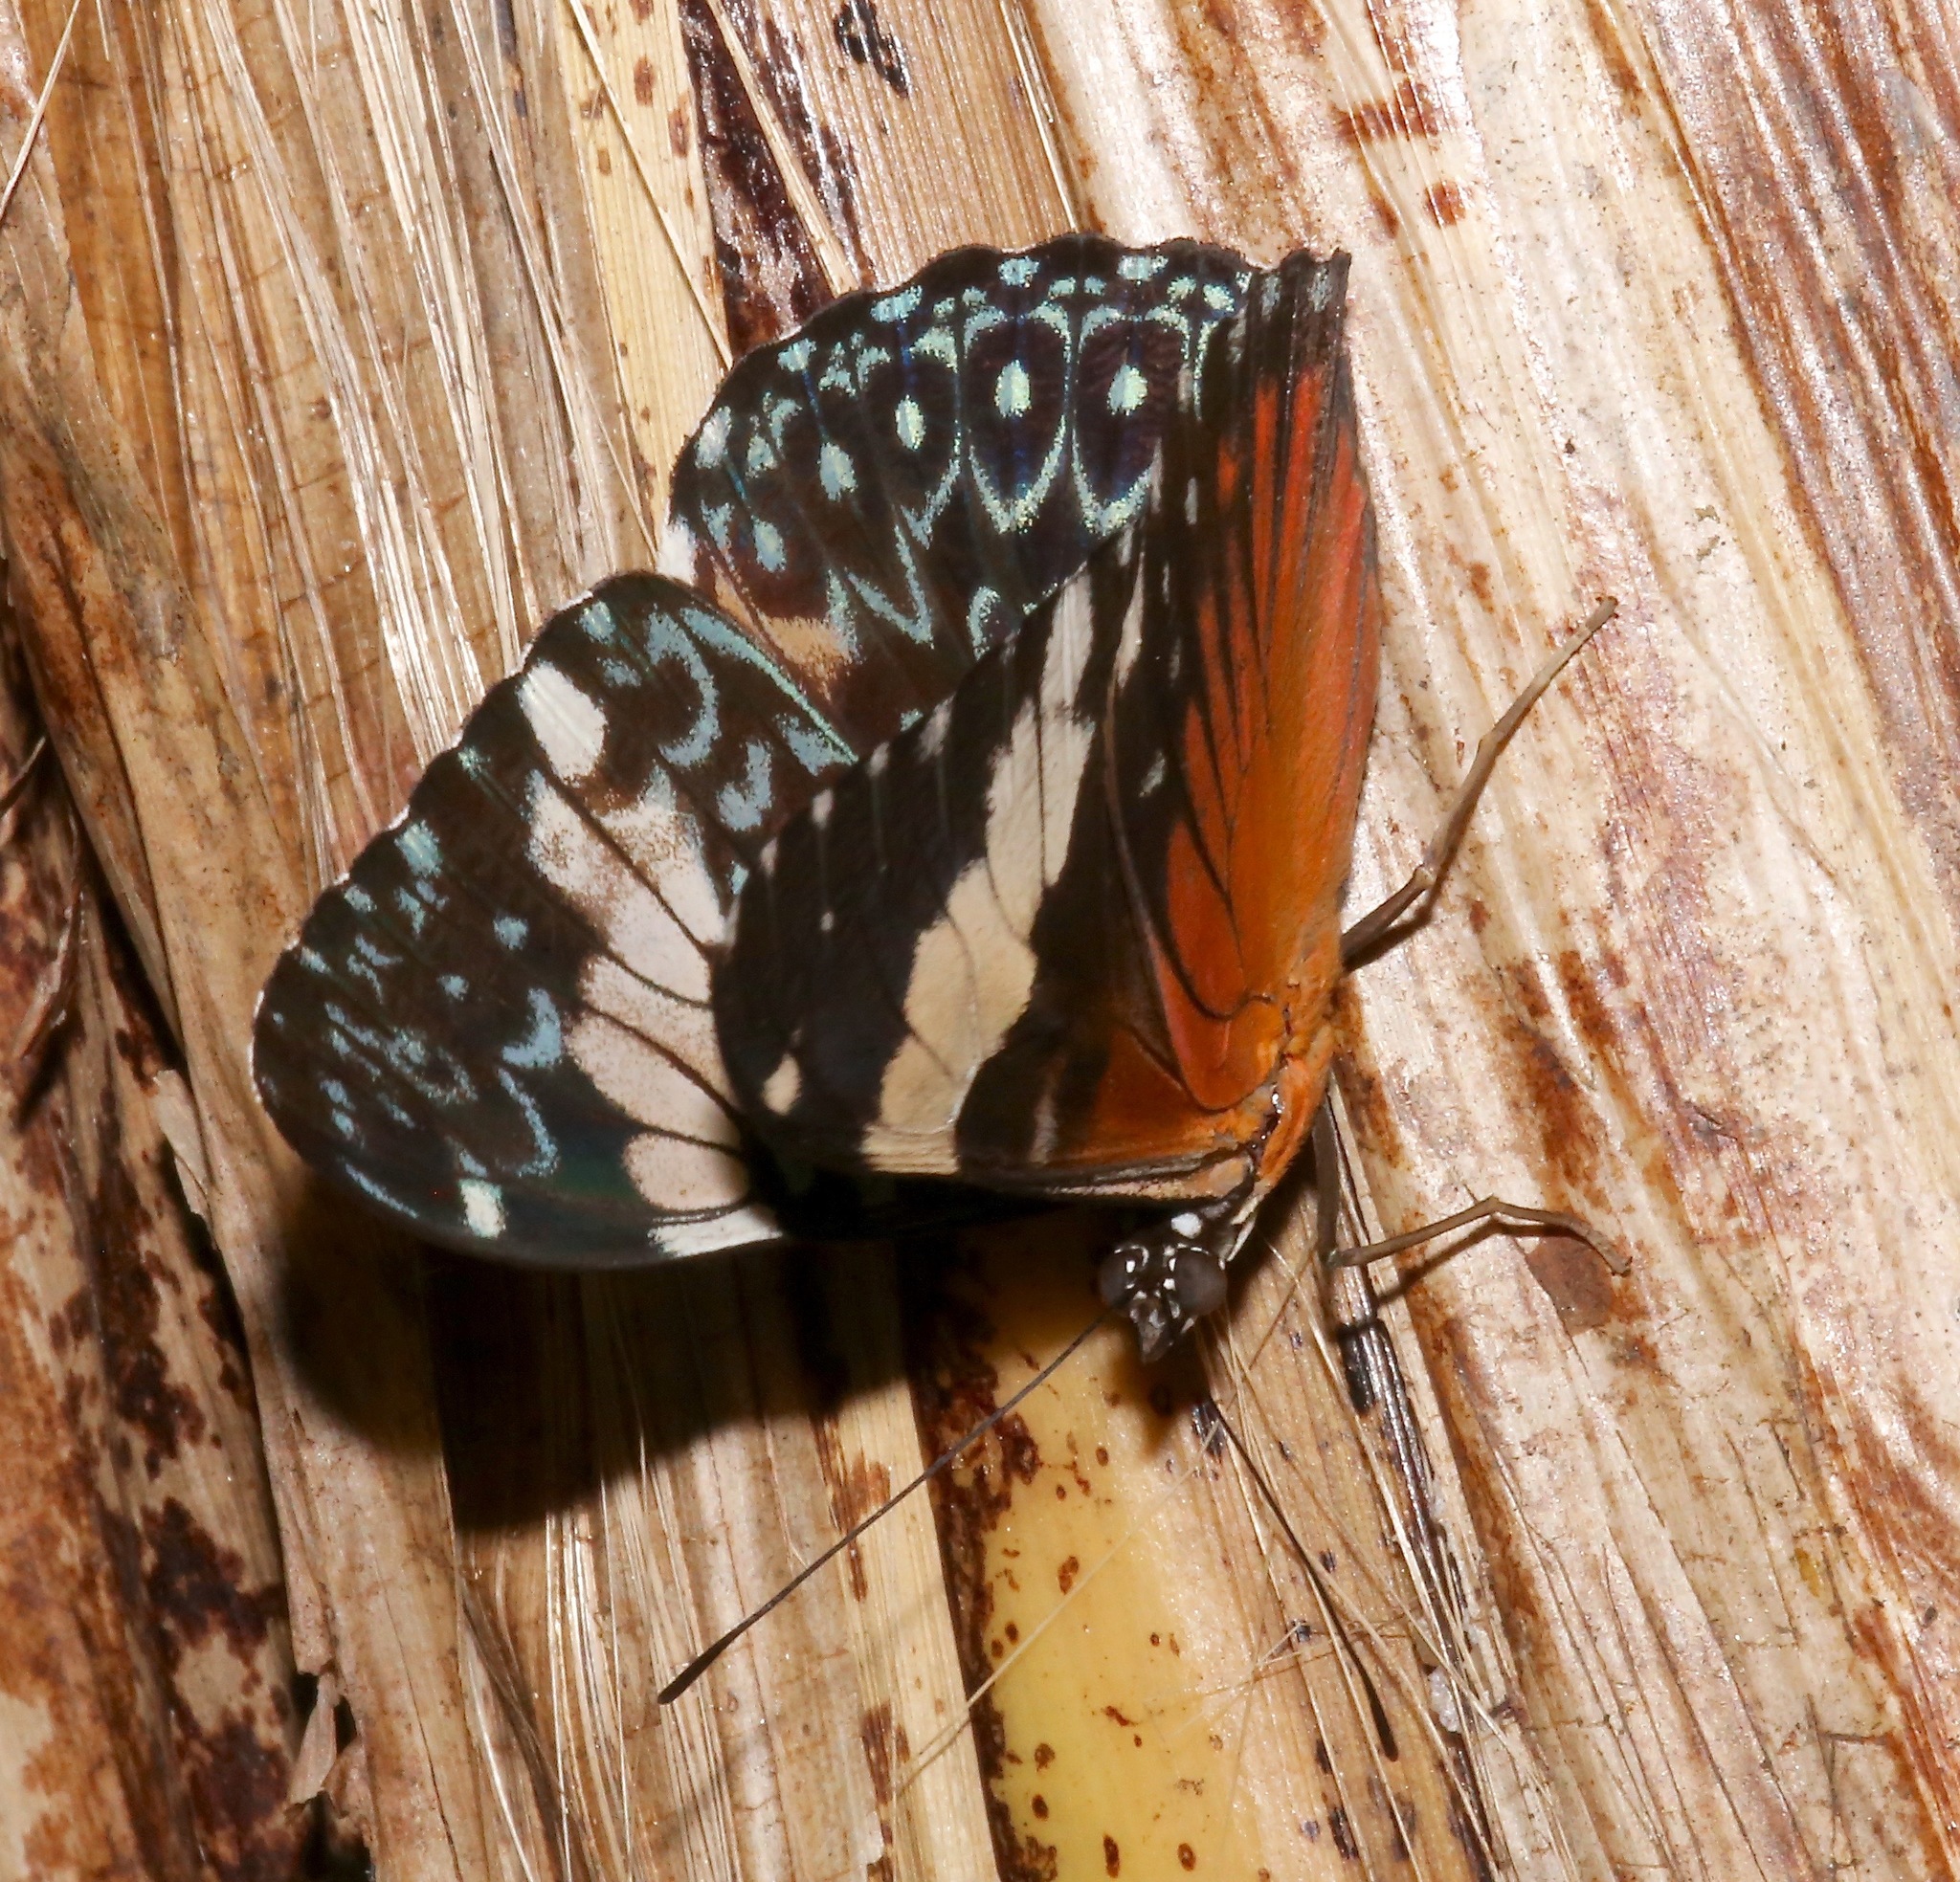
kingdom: Animalia
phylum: Arthropoda
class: Insecta
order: Lepidoptera
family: Nymphalidae
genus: Hamadryas
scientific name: Hamadryas amphinome
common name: Red cracker
